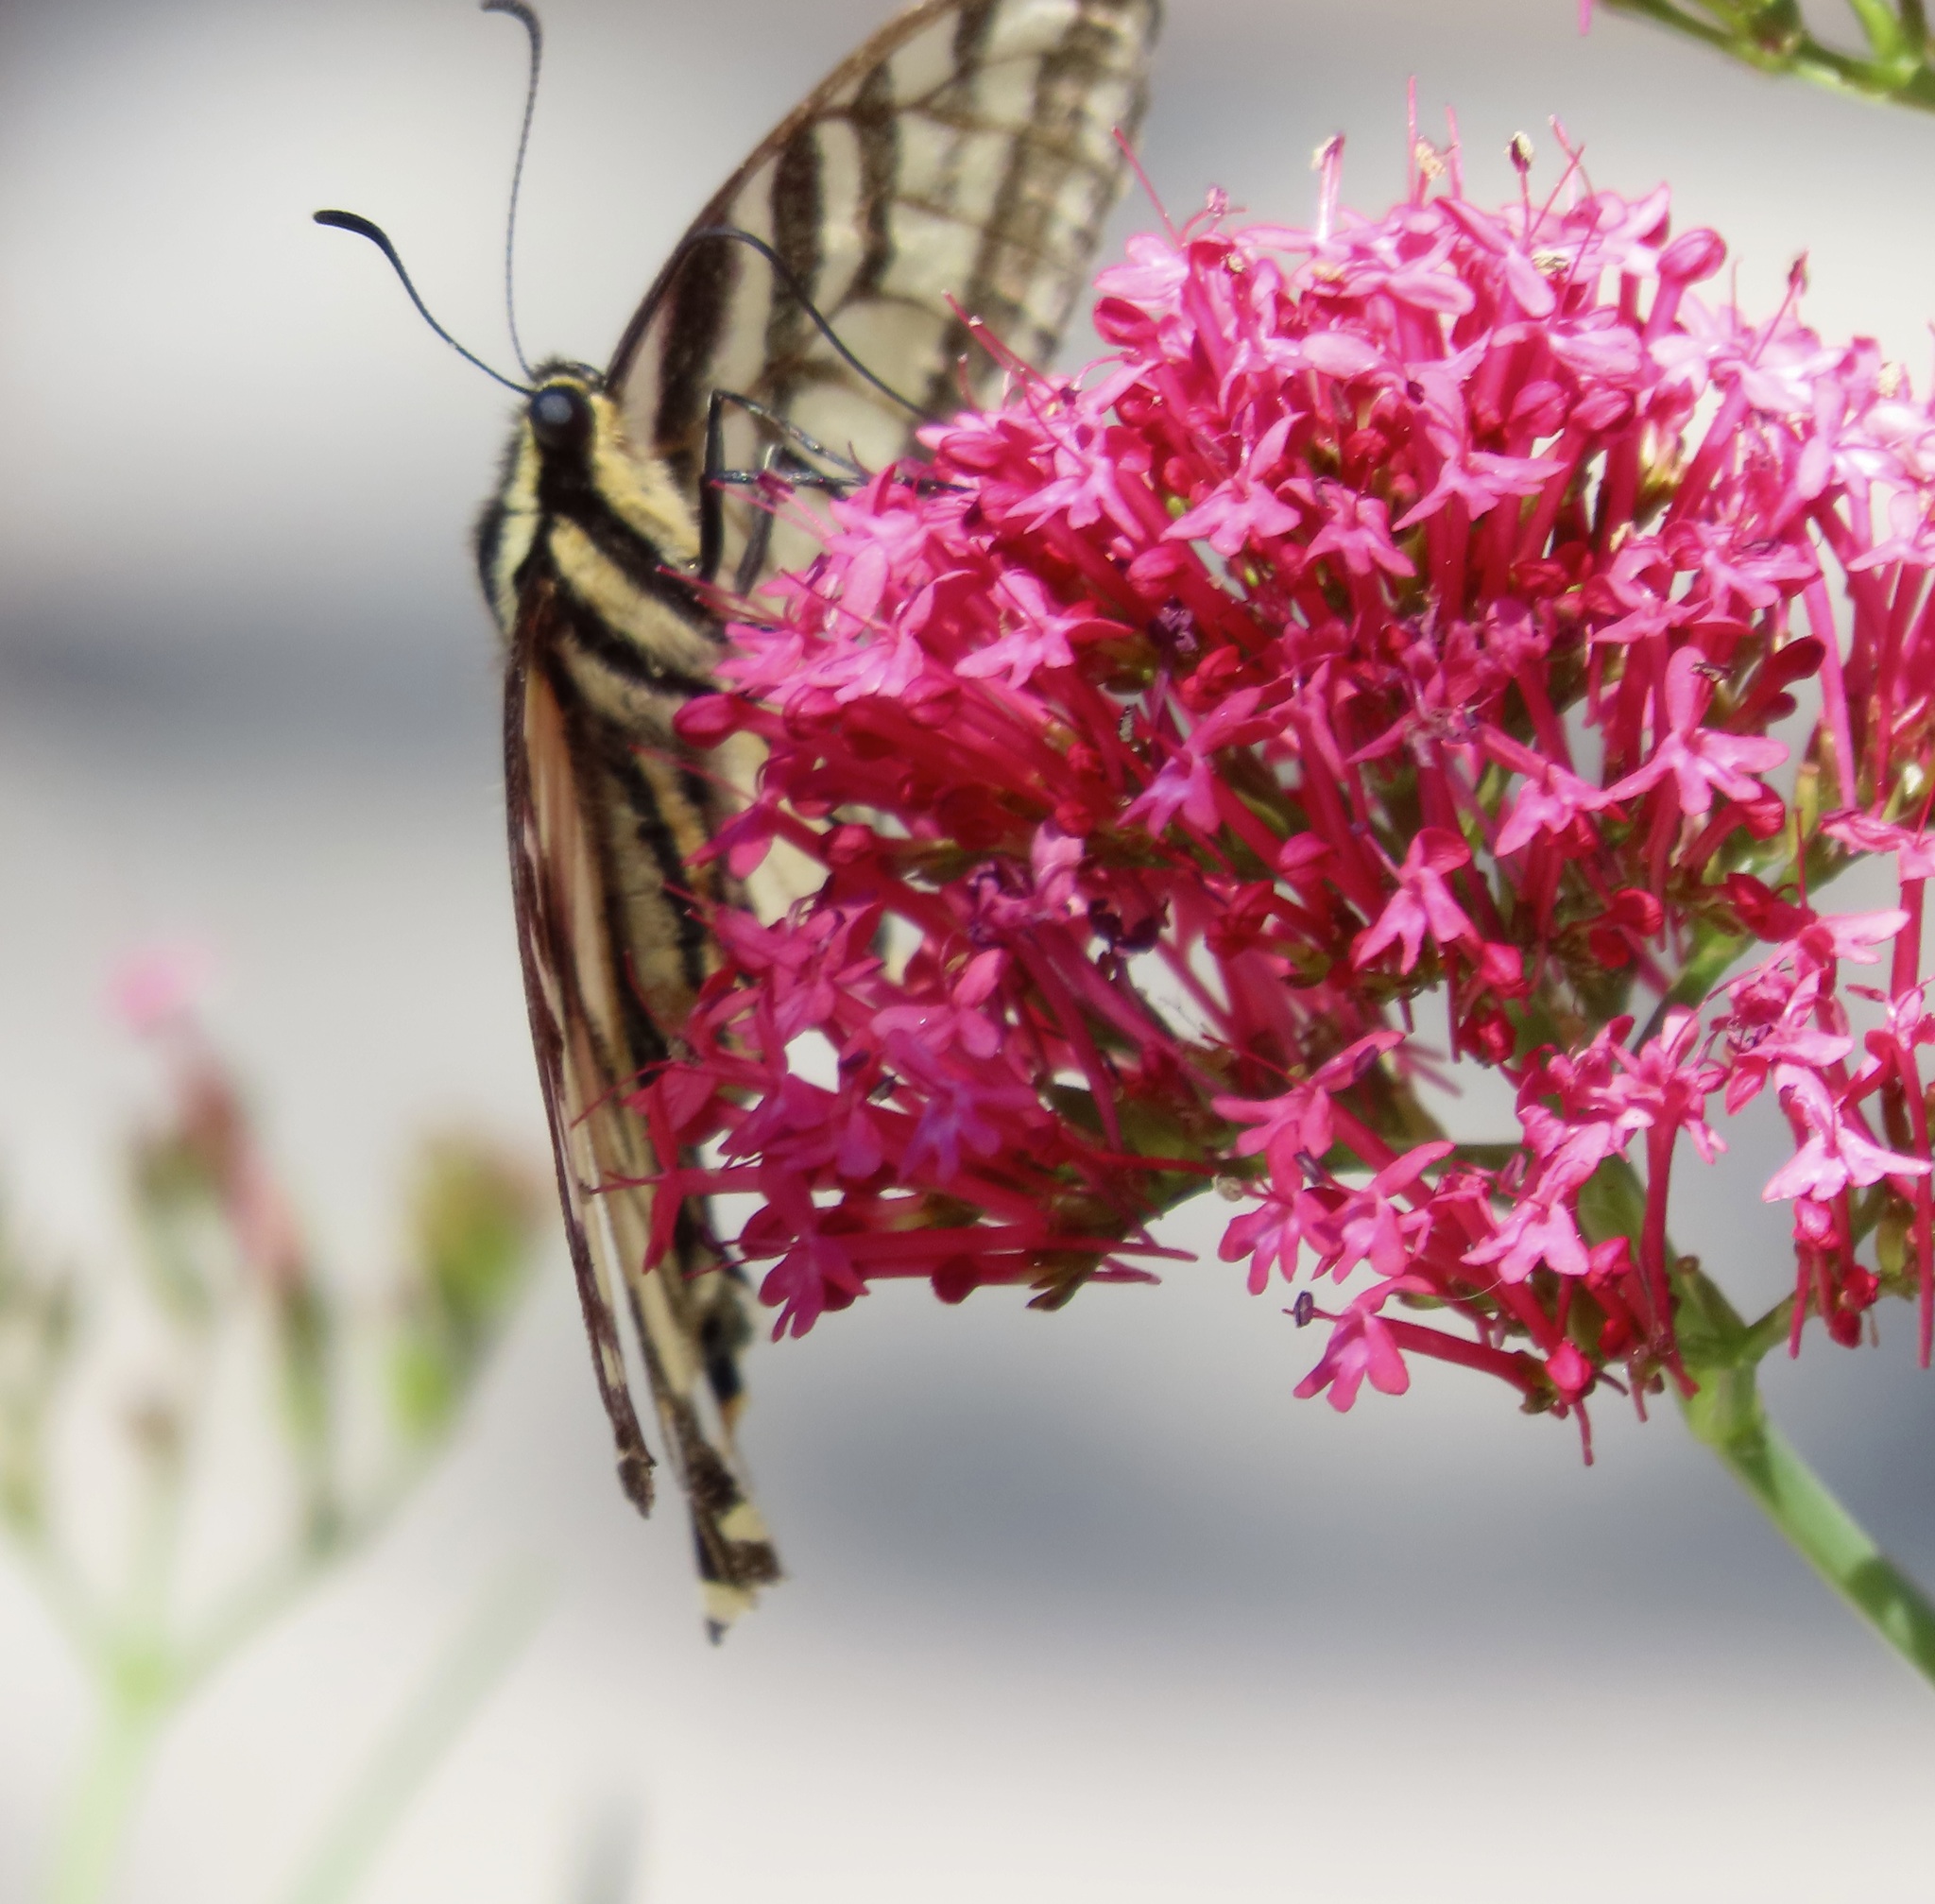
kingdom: Animalia
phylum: Arthropoda
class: Insecta
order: Lepidoptera
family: Papilionidae
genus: Papilio
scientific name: Papilio rutulus
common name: Western tiger swallowtail
